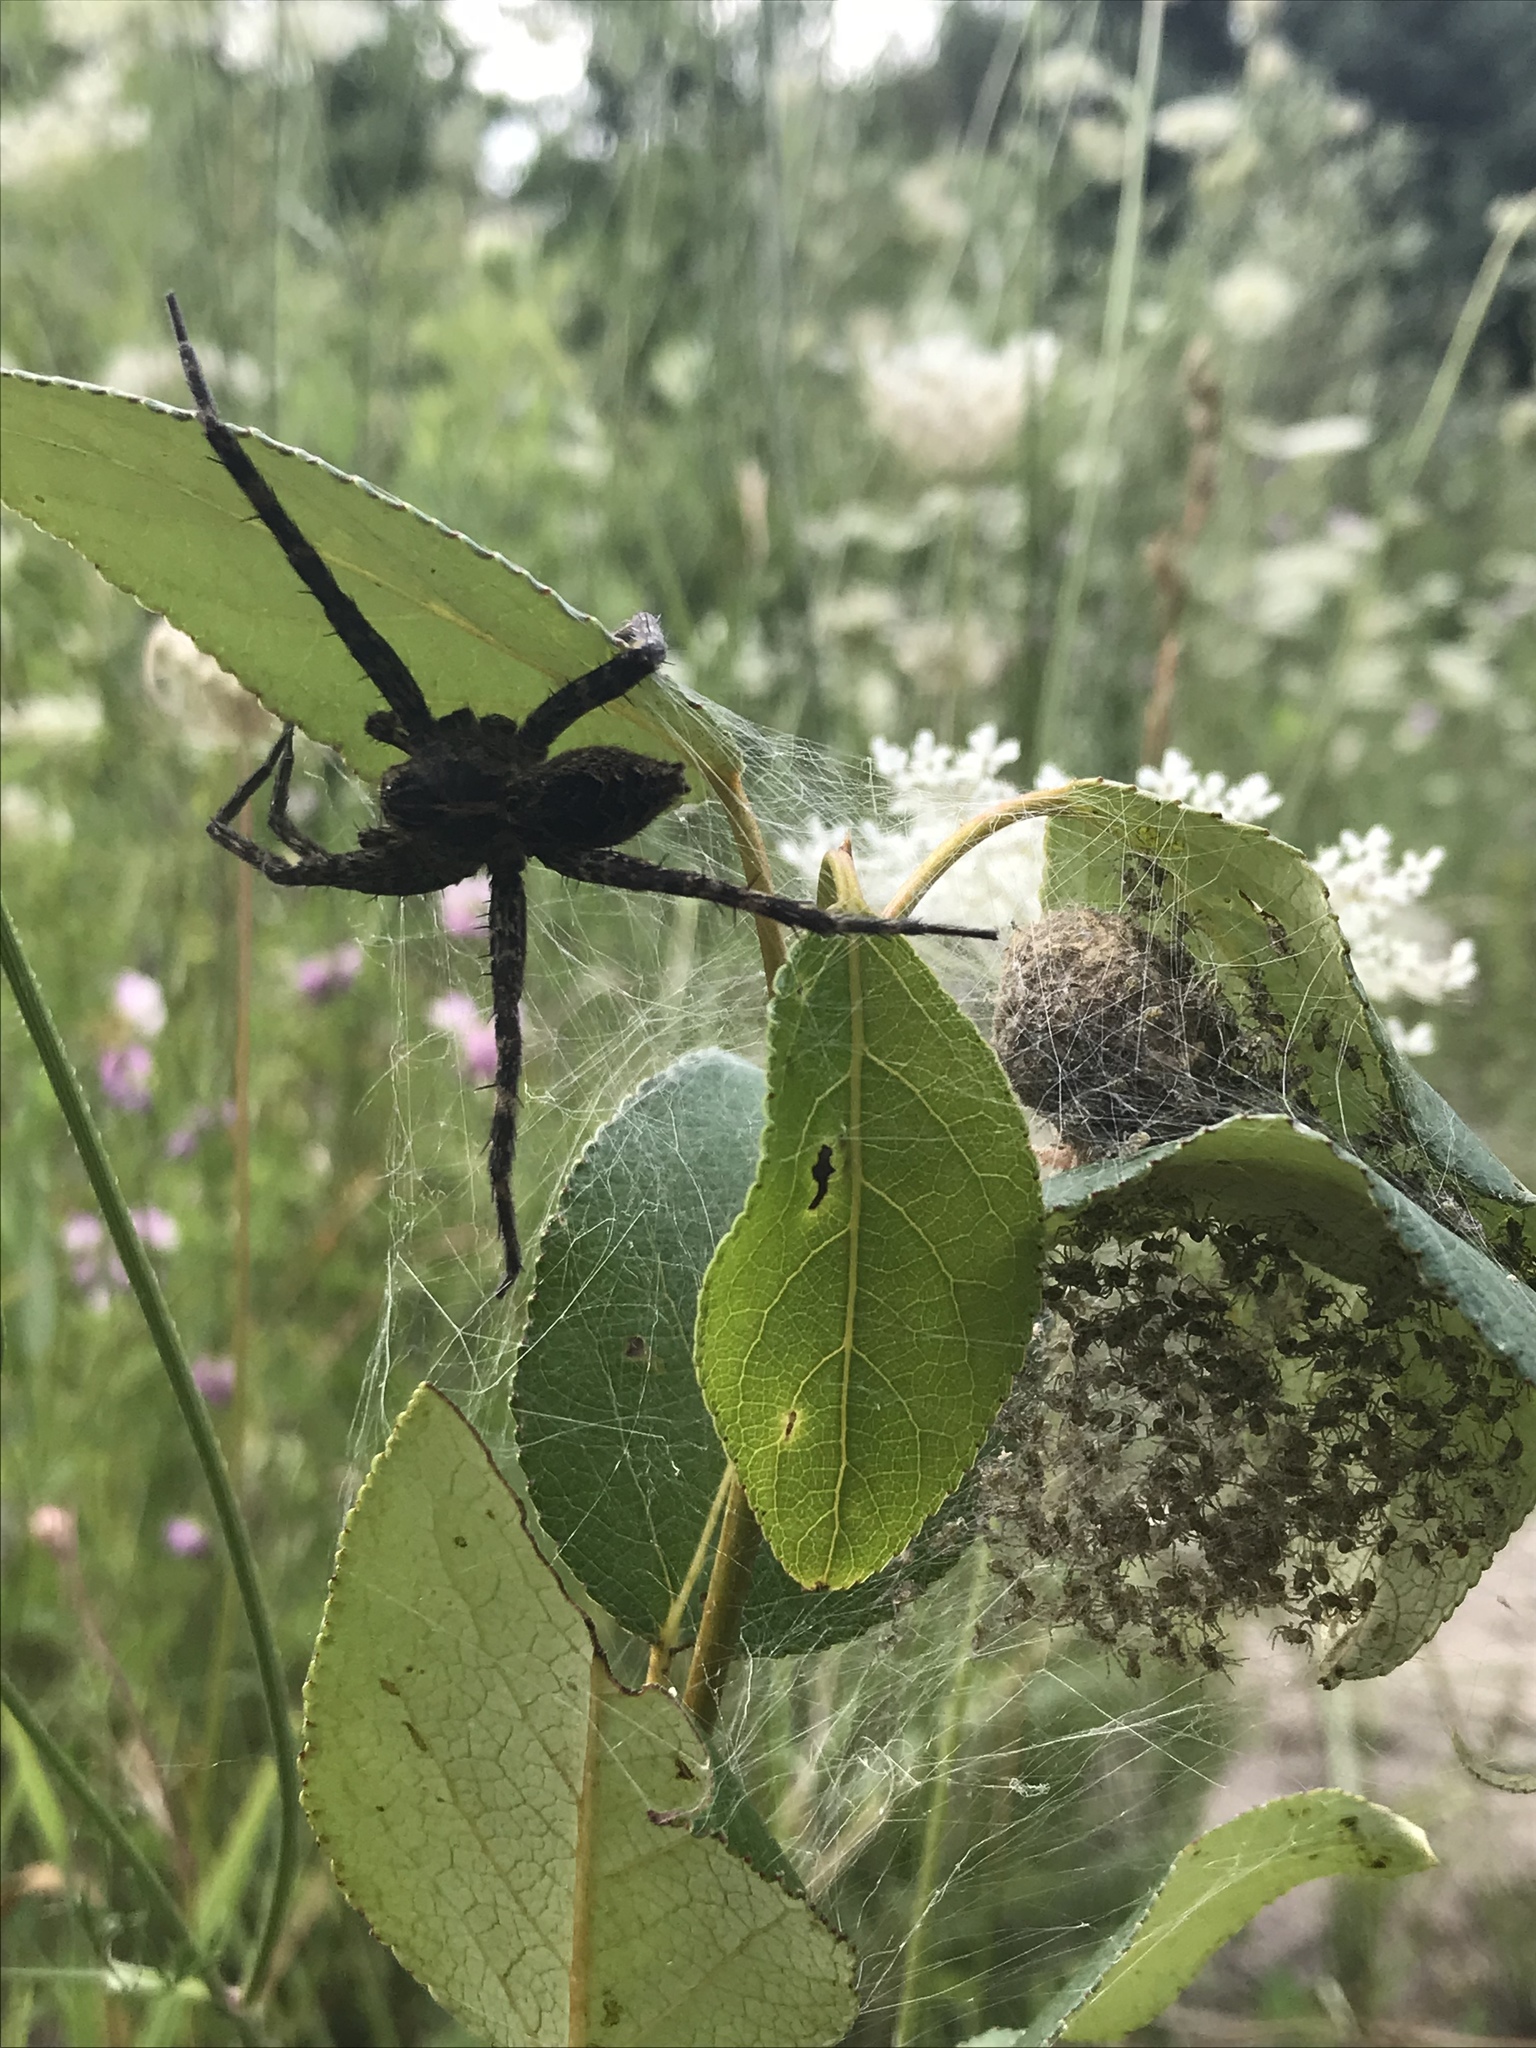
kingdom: Animalia
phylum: Arthropoda
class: Arachnida
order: Araneae
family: Pisauridae
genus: Dolomedes
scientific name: Dolomedes scriptus
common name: Striped fishing spider
